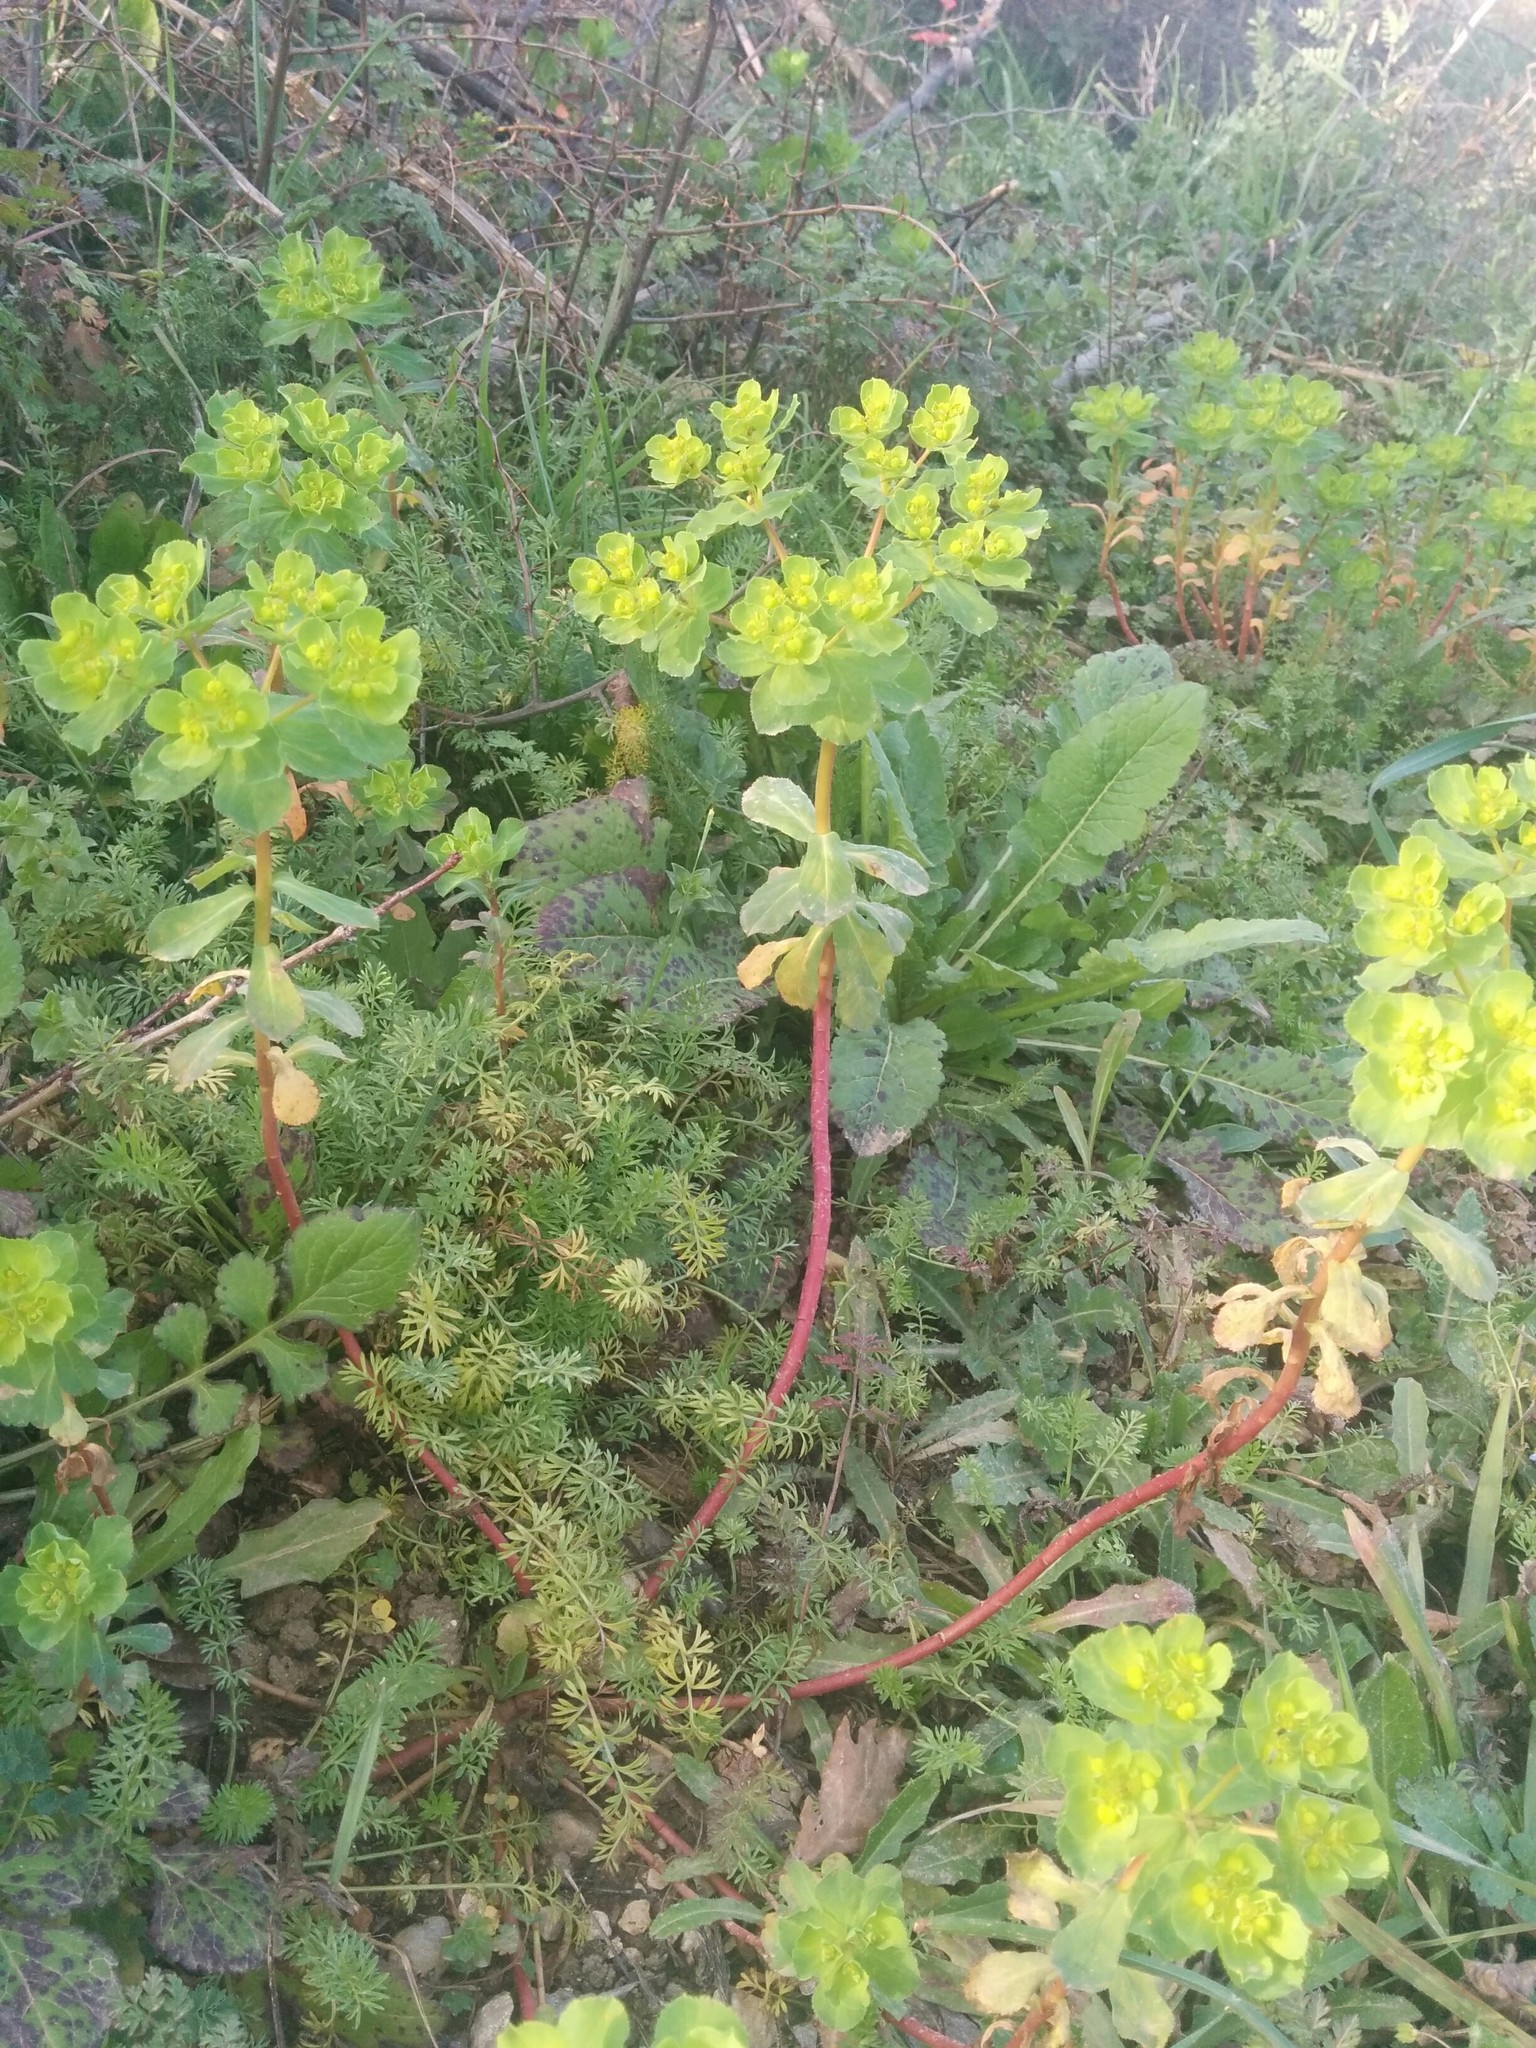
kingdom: Plantae
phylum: Tracheophyta
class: Magnoliopsida
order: Malpighiales
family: Euphorbiaceae
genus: Euphorbia
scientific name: Euphorbia helioscopia
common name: Sun spurge
